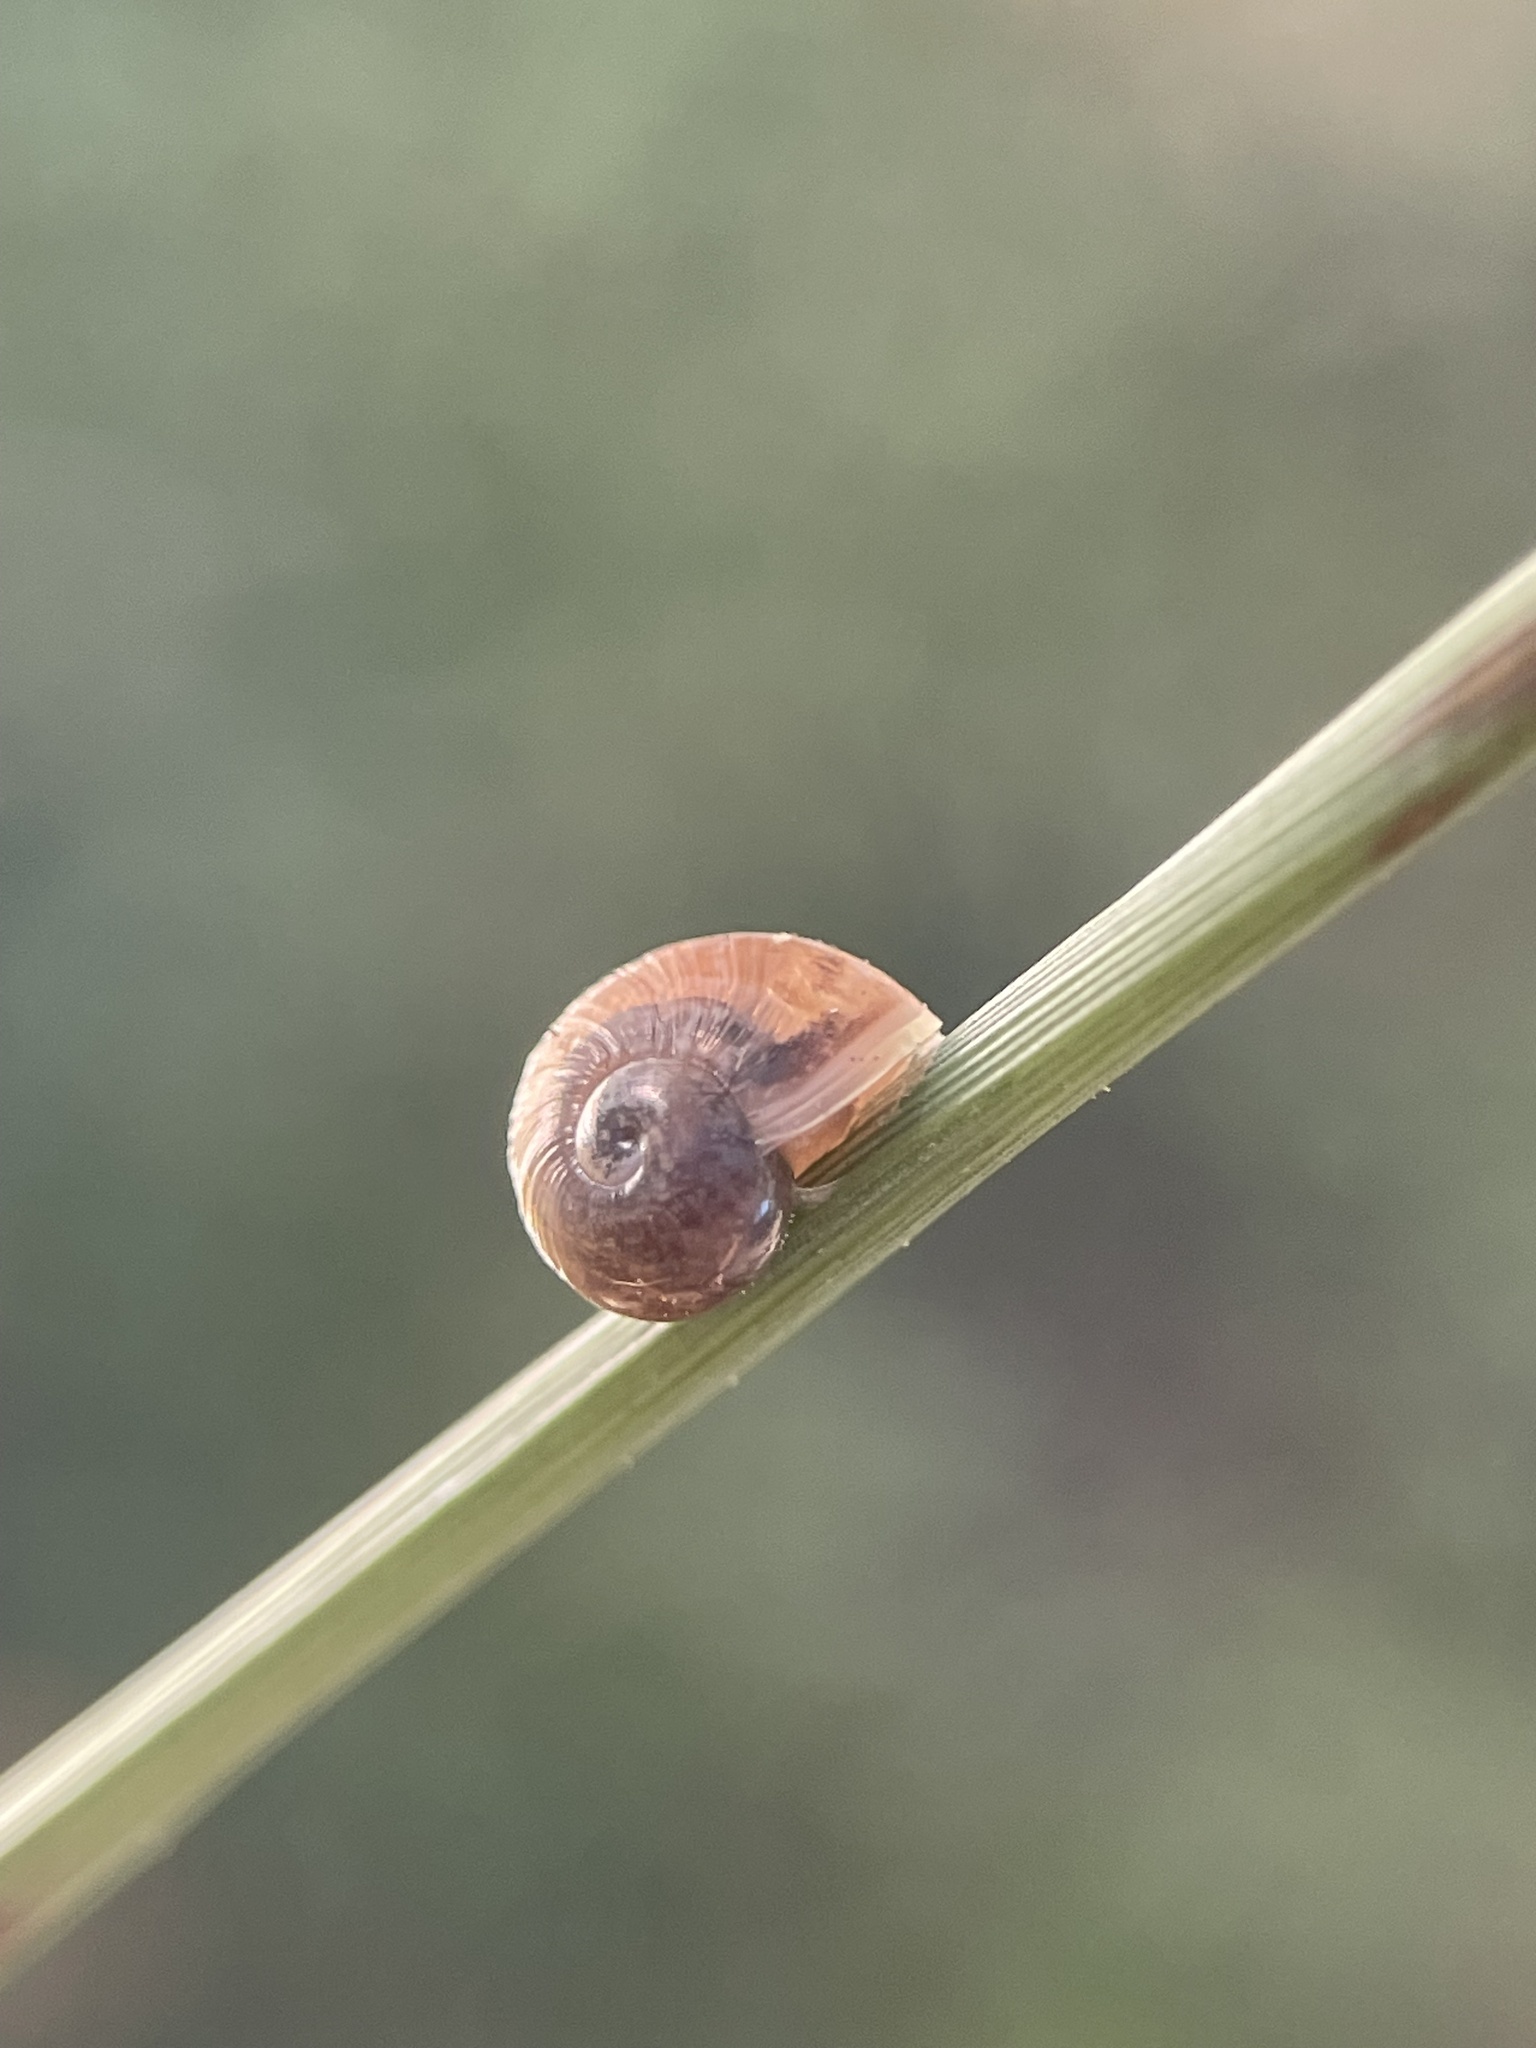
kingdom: Animalia
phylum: Mollusca
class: Gastropoda
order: Stylommatophora
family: Helicidae
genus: Cornu
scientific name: Cornu aspersum
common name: Brown garden snail
